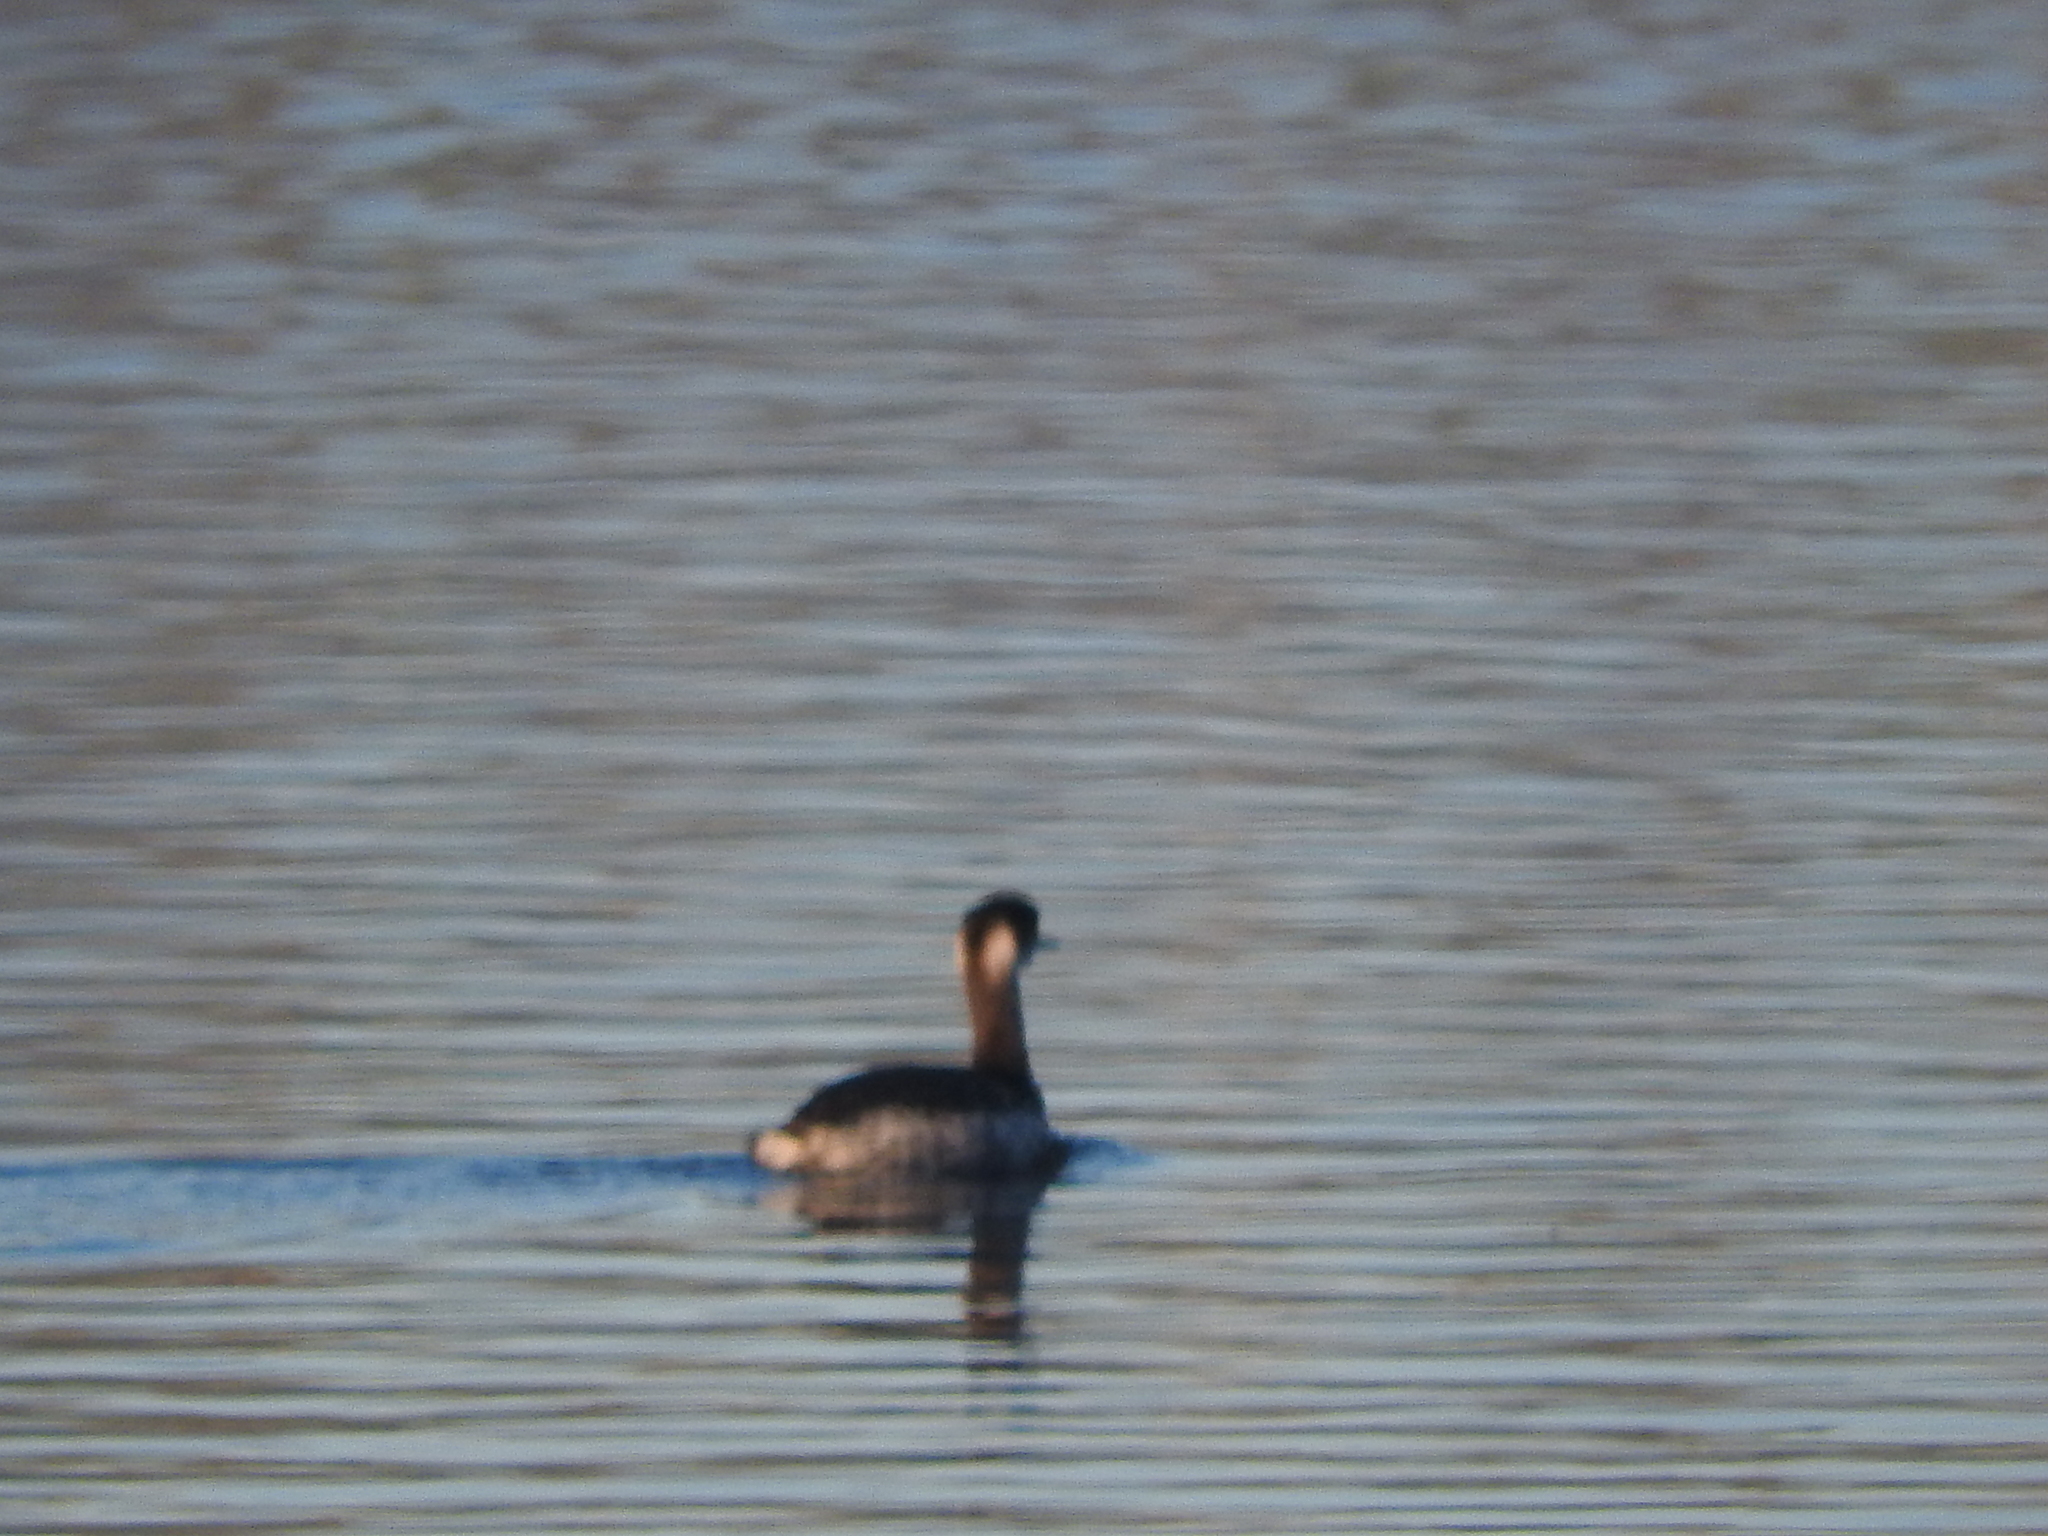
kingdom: Animalia
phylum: Chordata
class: Aves
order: Podicipediformes
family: Podicipedidae
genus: Podiceps
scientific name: Podiceps nigricollis
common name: Black-necked grebe
